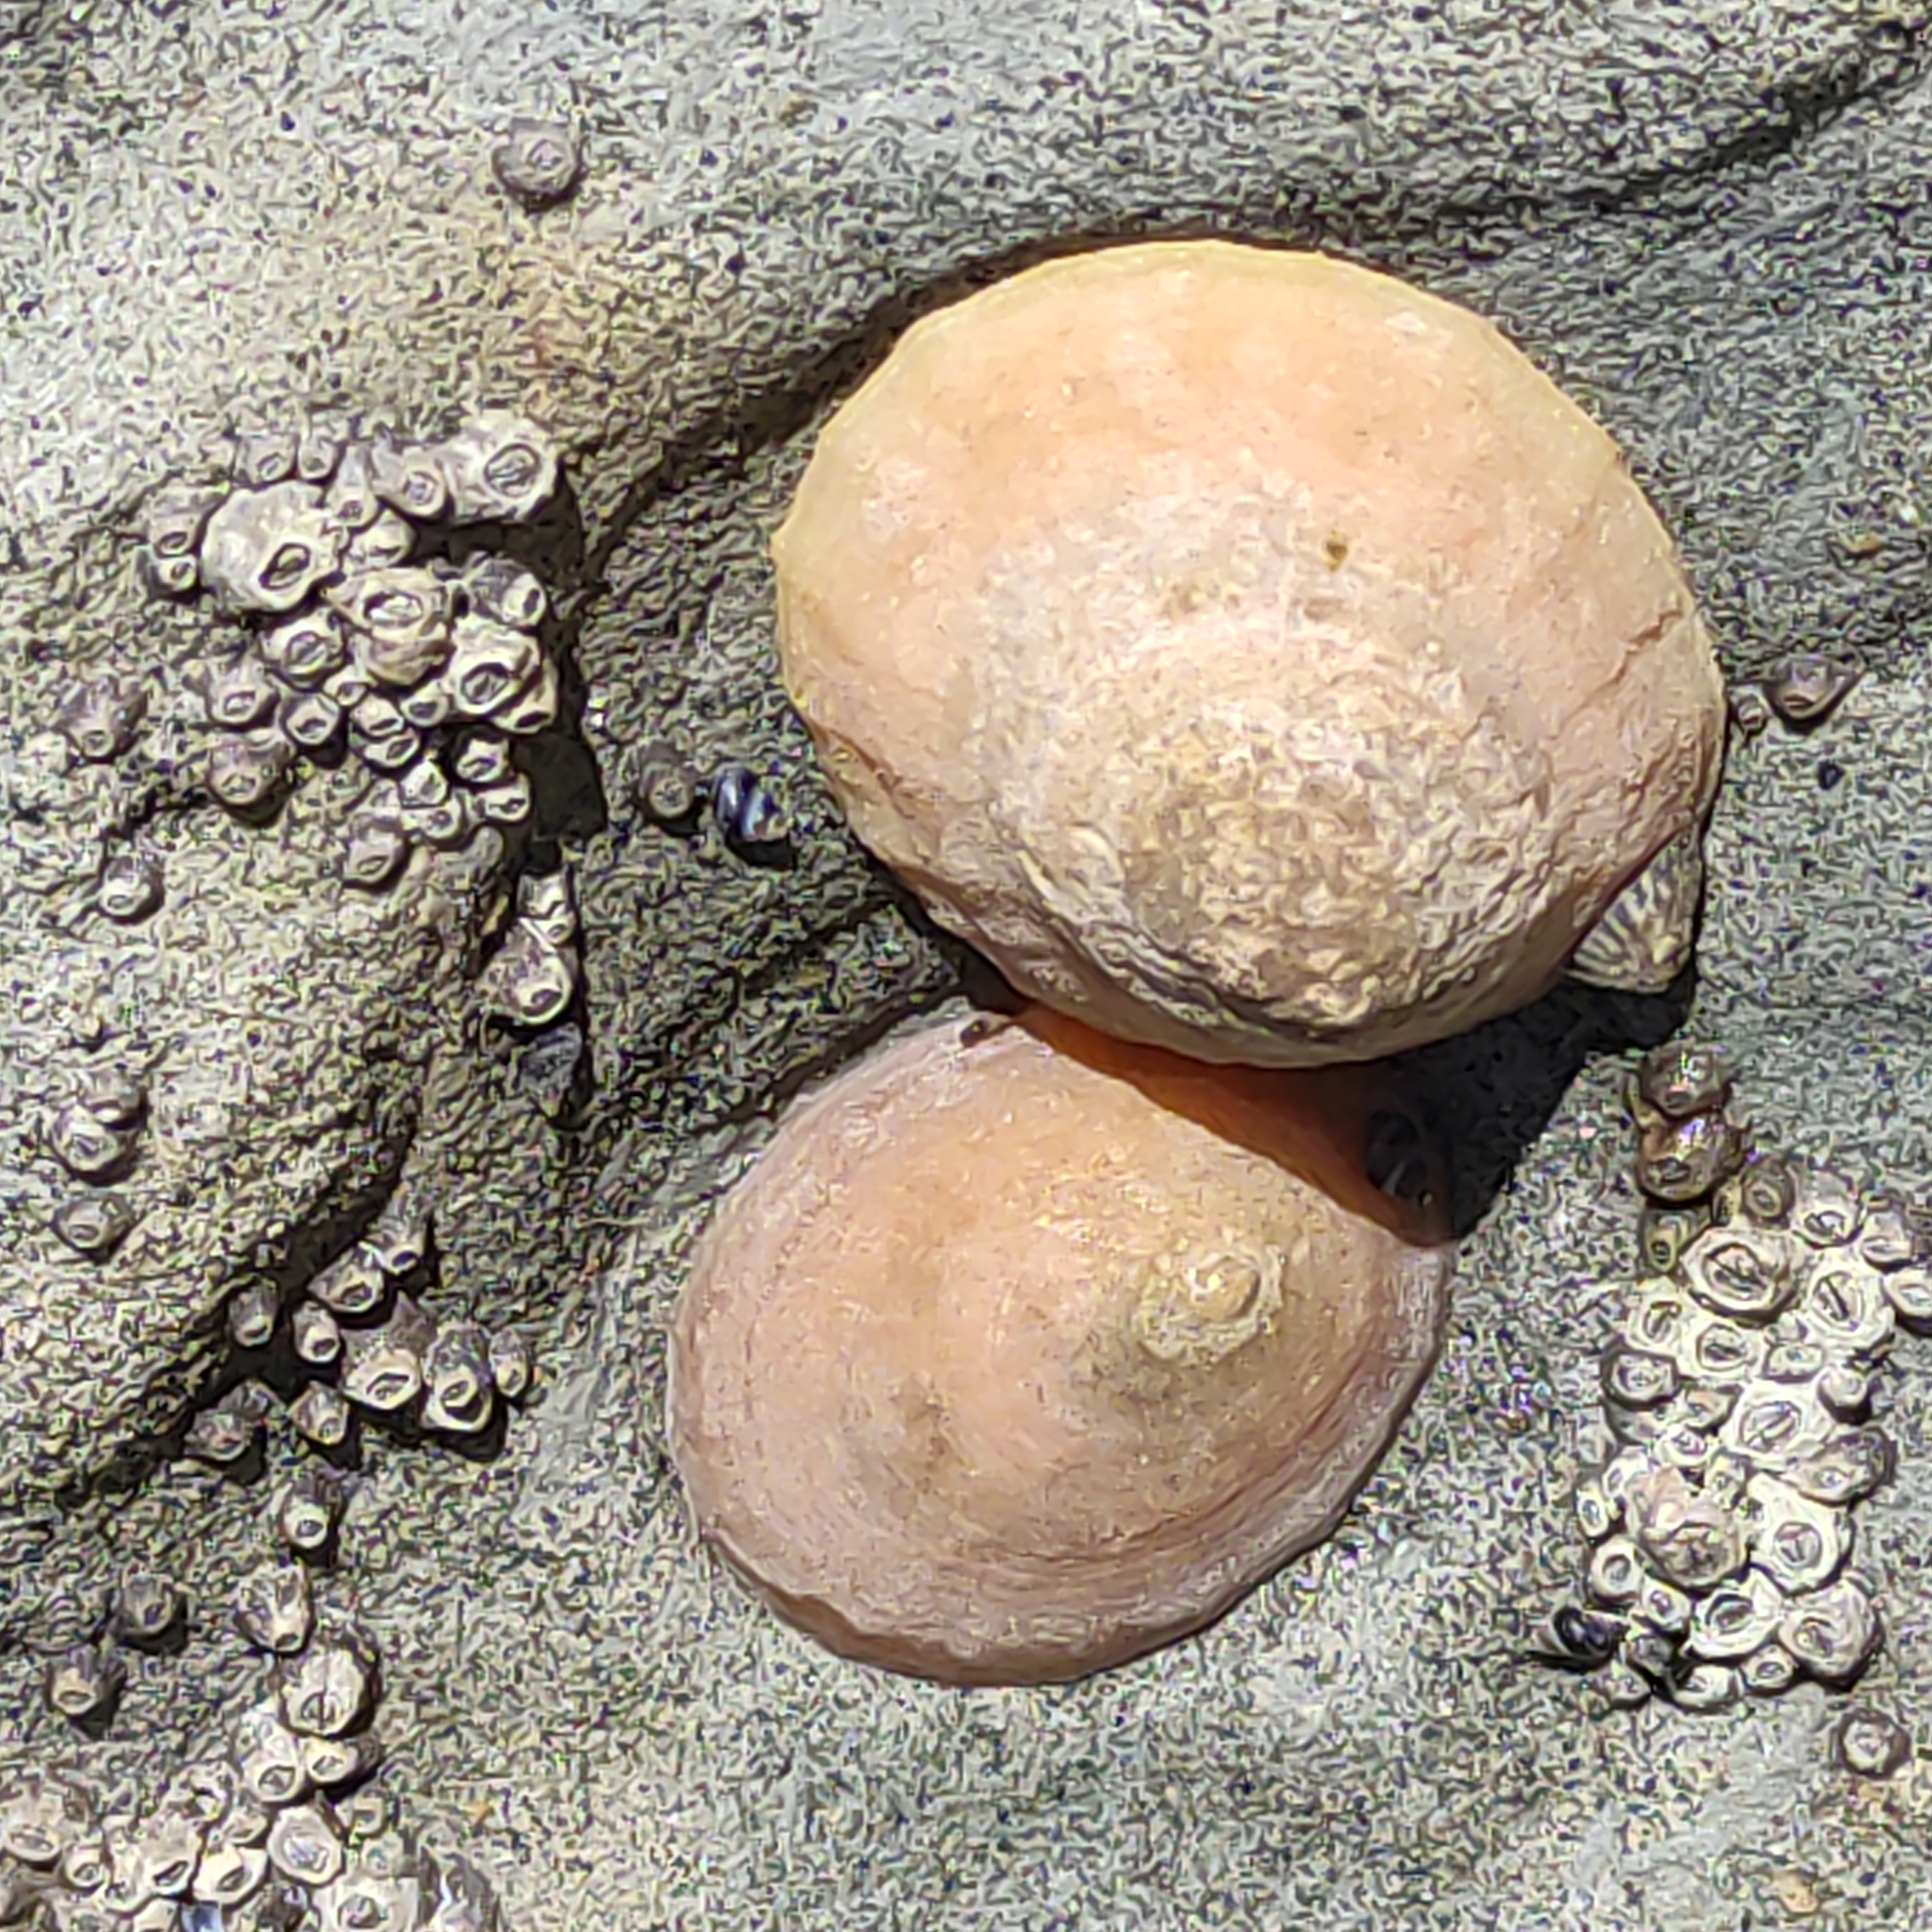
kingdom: Animalia
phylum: Mollusca
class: Gastropoda
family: Nacellidae
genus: Cellana
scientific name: Cellana flava
